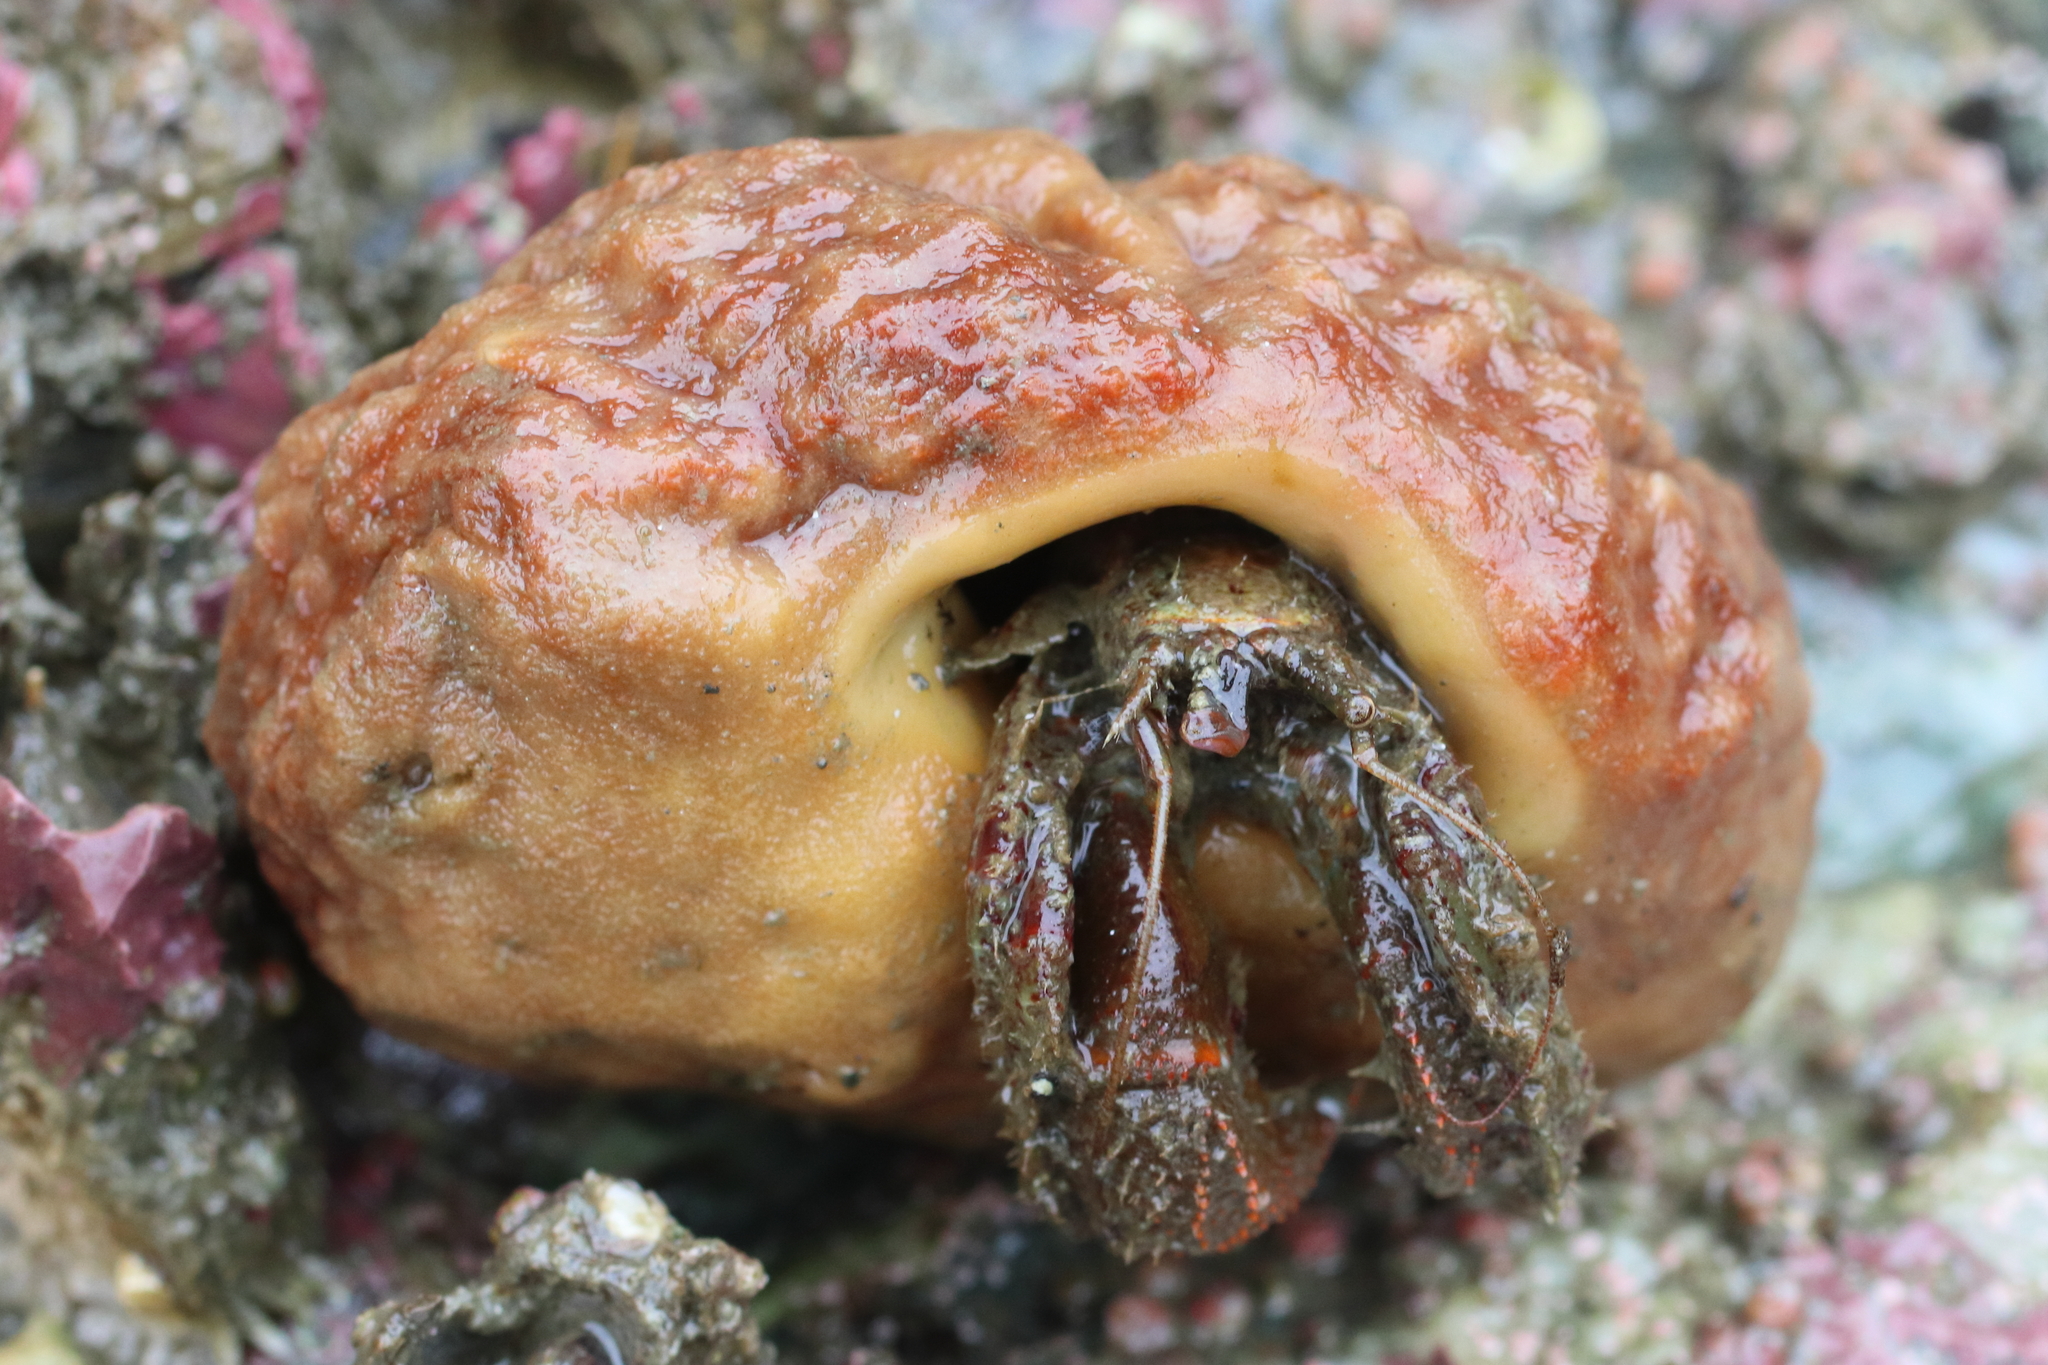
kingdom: Animalia
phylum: Arthropoda
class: Malacostraca
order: Decapoda
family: Paguridae
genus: Pagurus
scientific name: Pagurus beringanus
